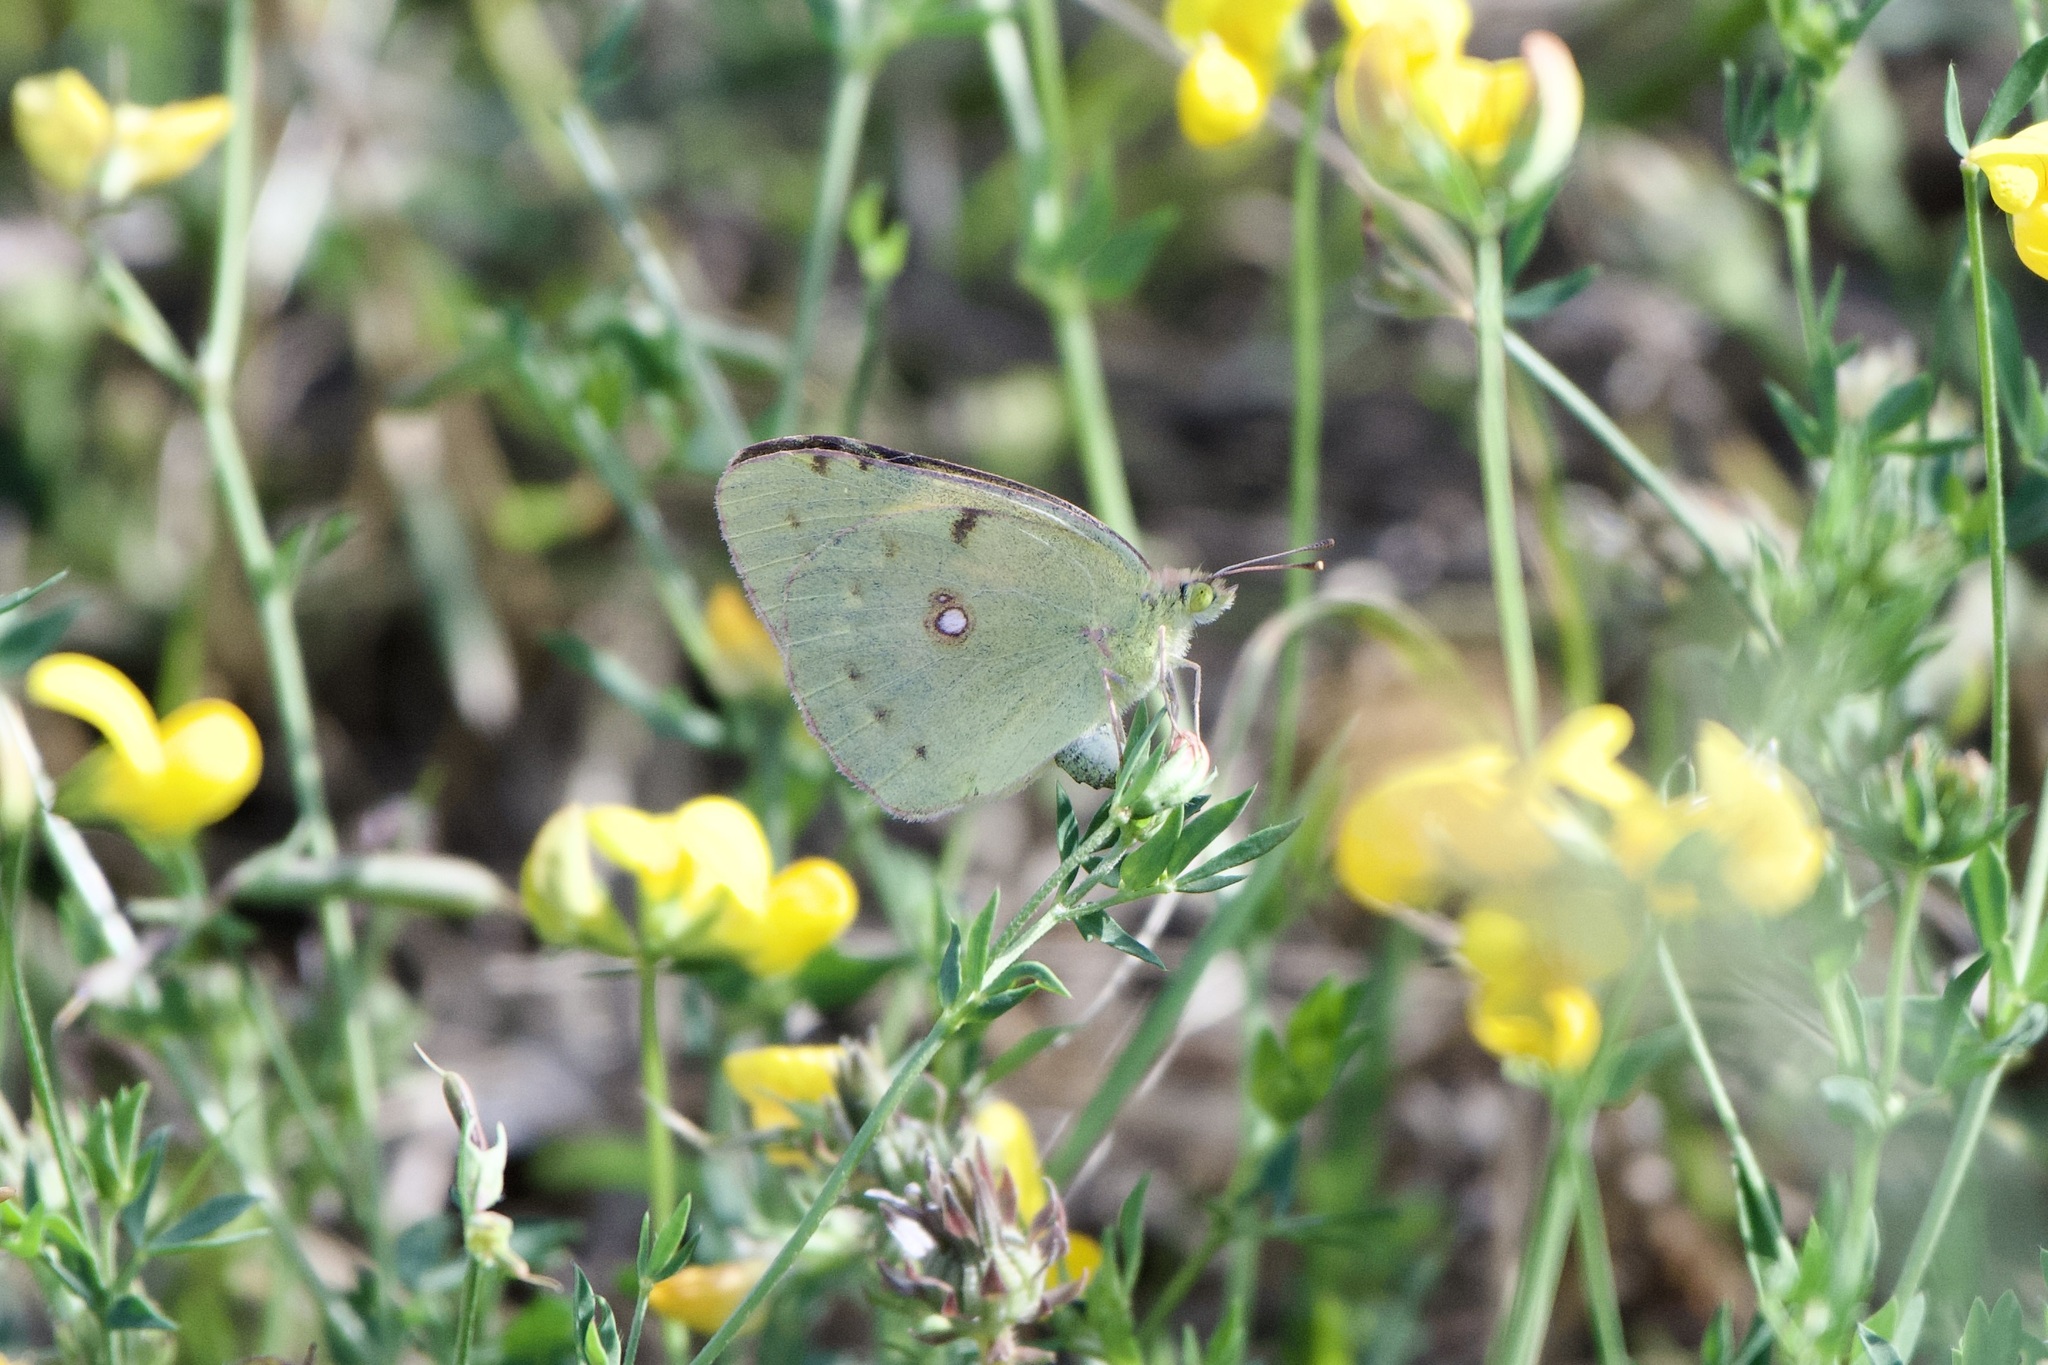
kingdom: Animalia
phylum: Arthropoda
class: Insecta
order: Lepidoptera
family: Pieridae
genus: Colias
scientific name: Colias croceus
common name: Clouded yellow
